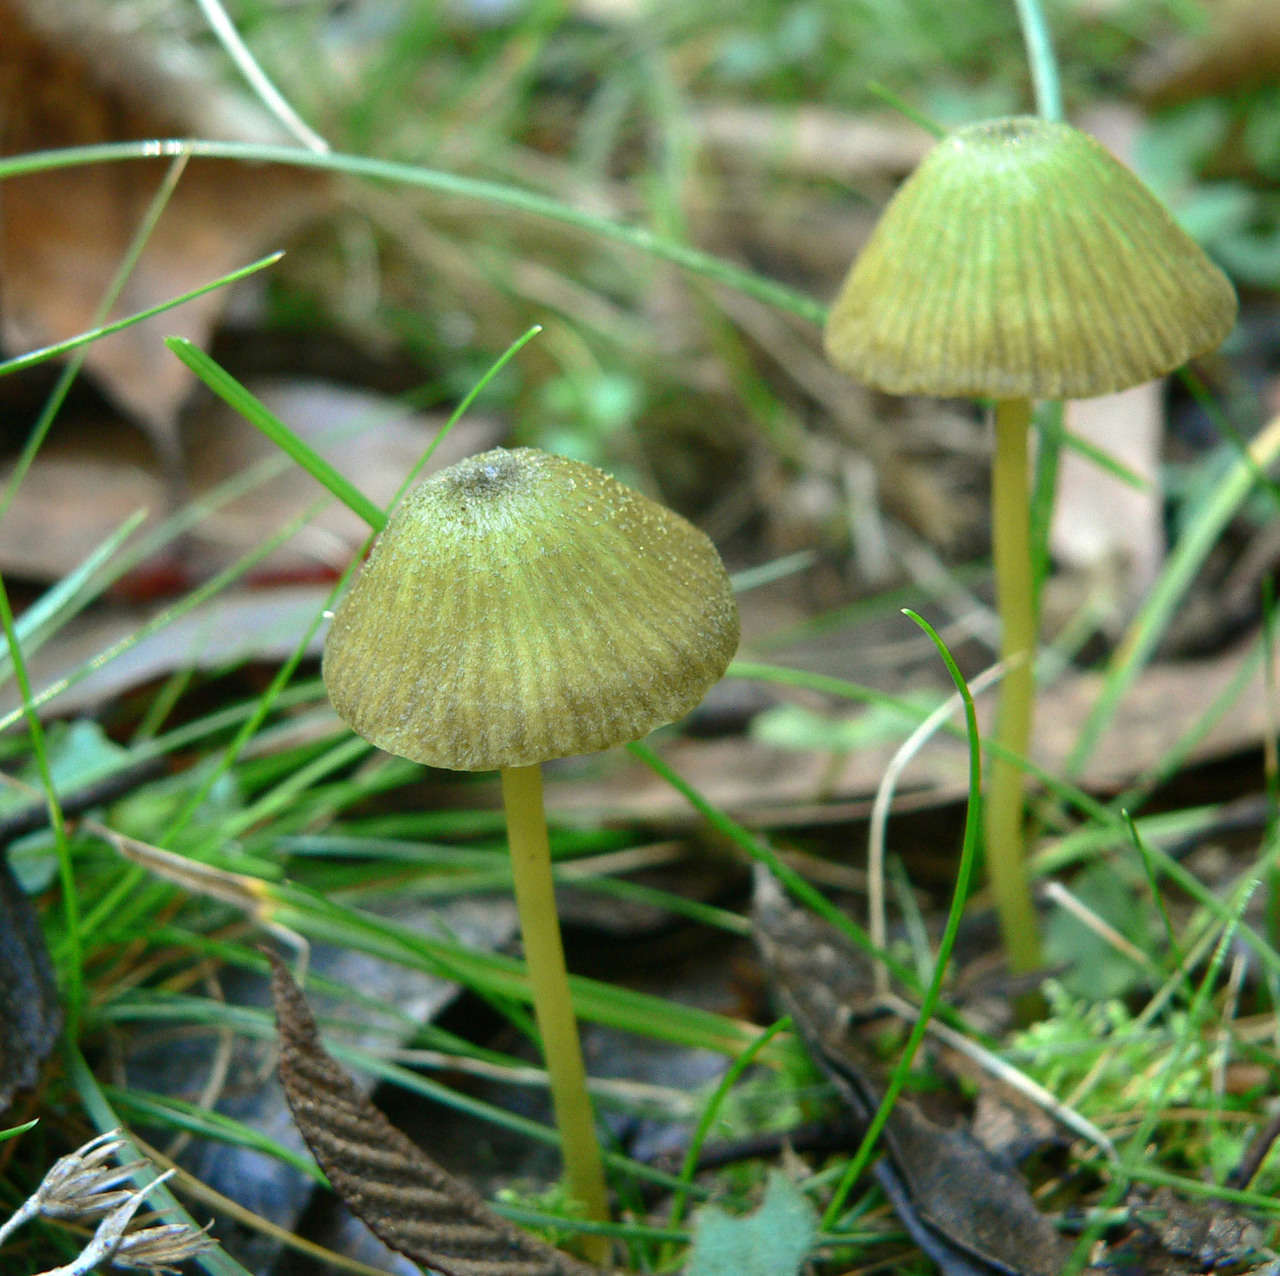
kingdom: Fungi
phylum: Basidiomycota
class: Agaricomycetes
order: Agaricales
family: Entolomataceae
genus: Entoloma
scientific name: Entoloma rodwayi
